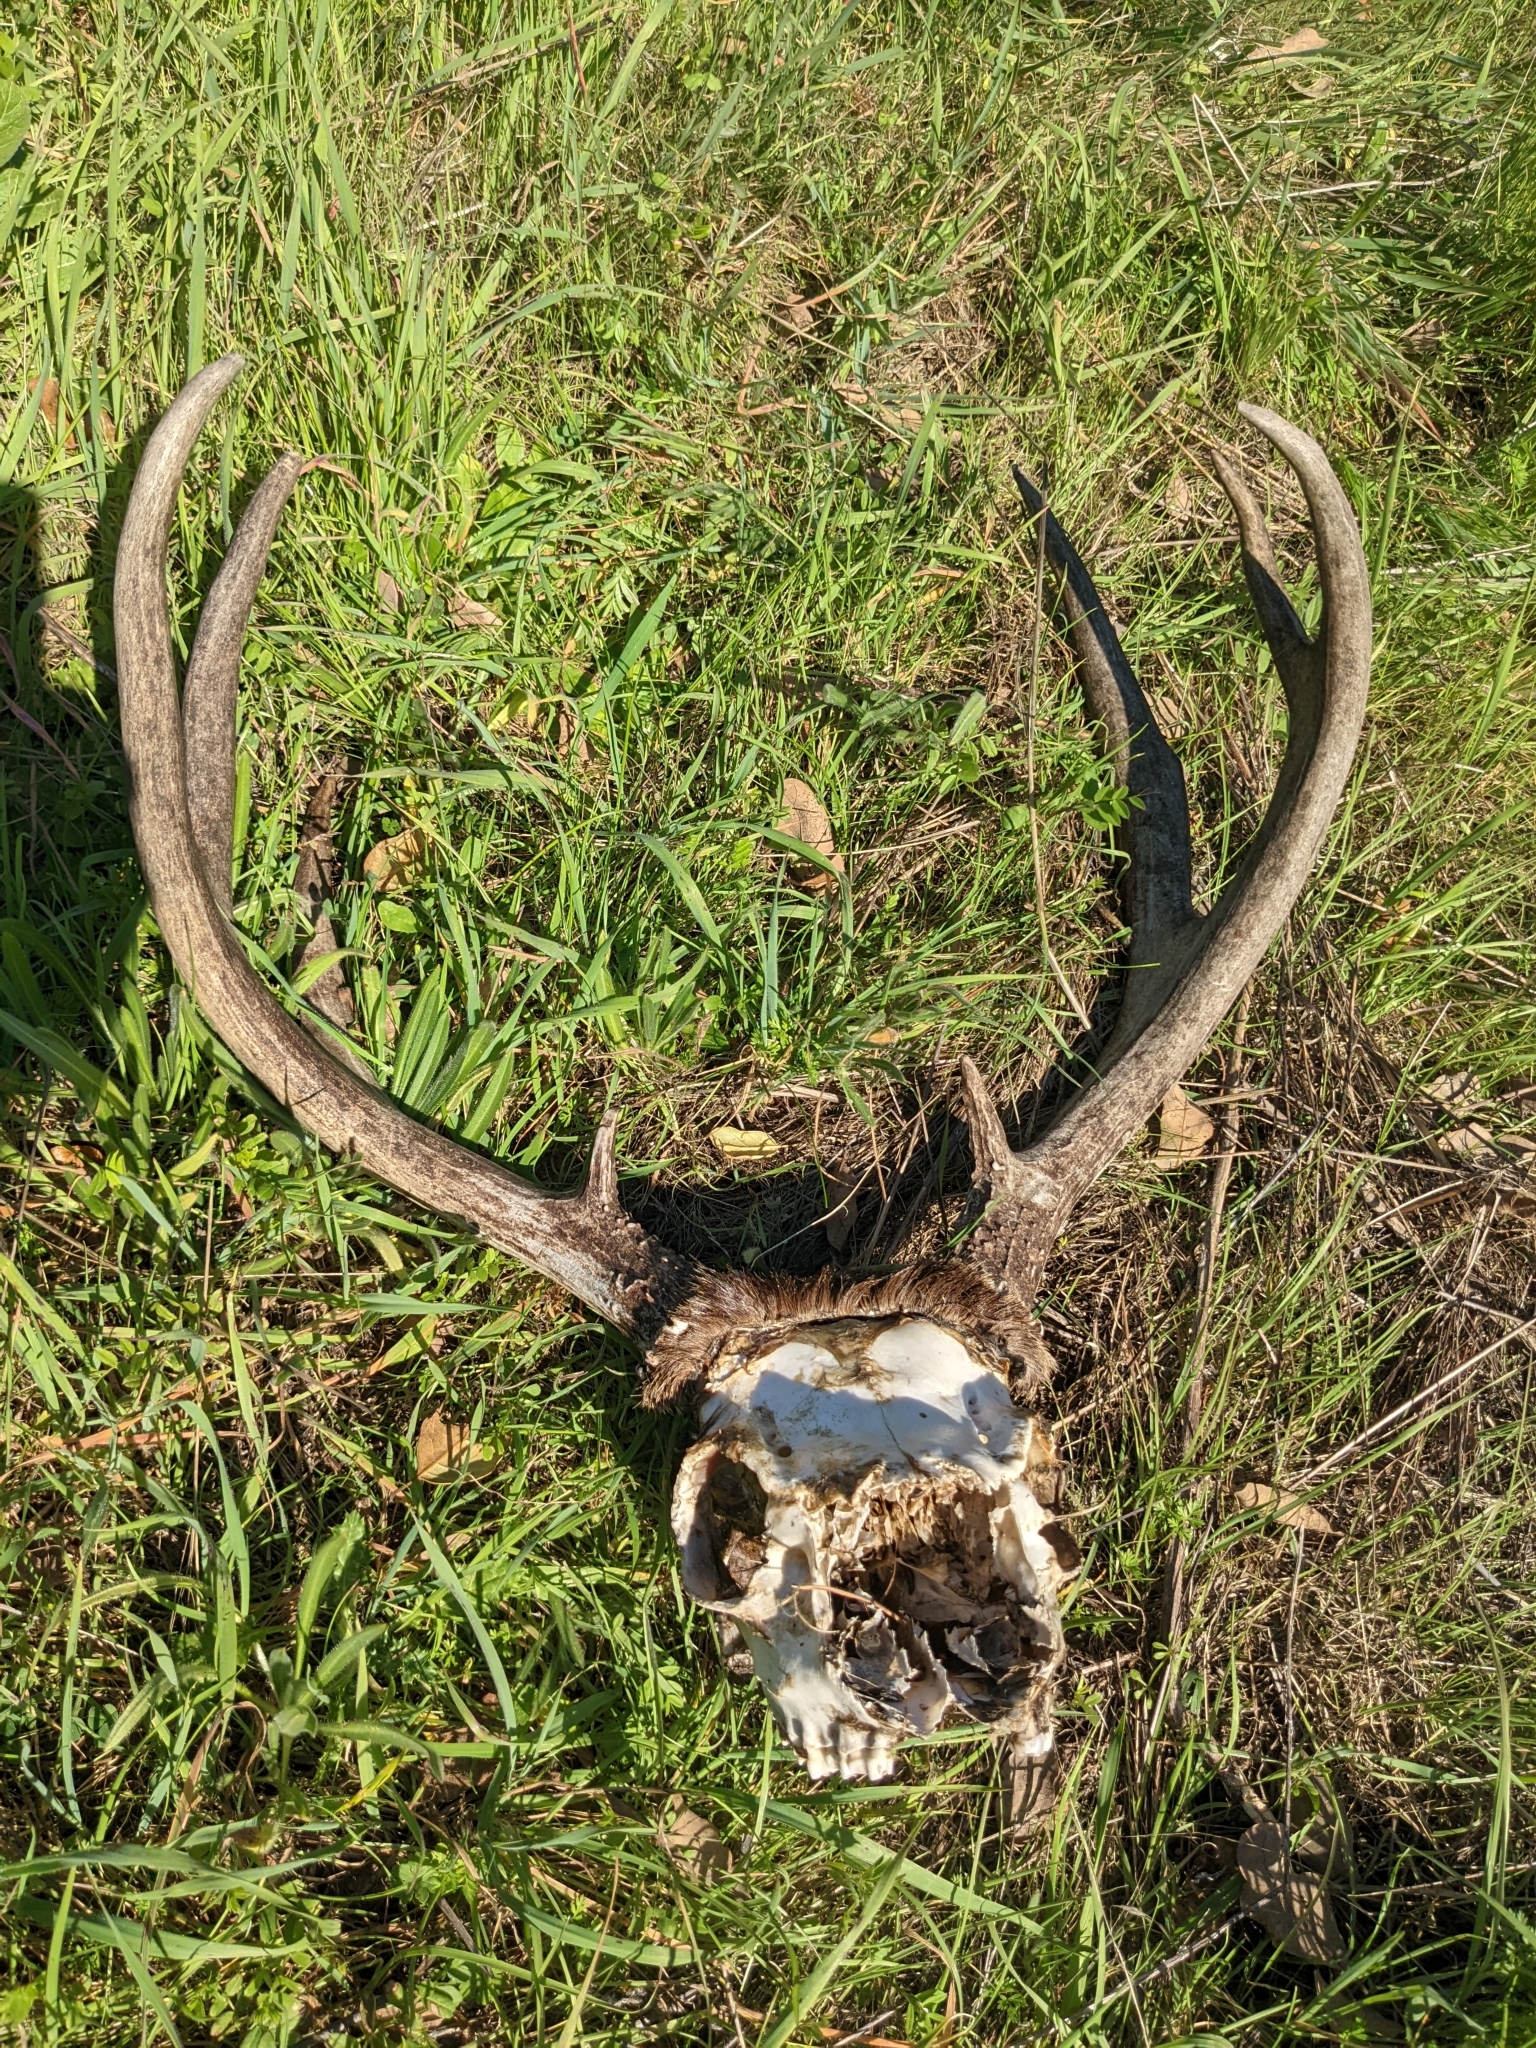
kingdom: Animalia
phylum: Chordata
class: Mammalia
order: Artiodactyla
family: Cervidae
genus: Odocoileus
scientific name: Odocoileus hemionus
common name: Mule deer
